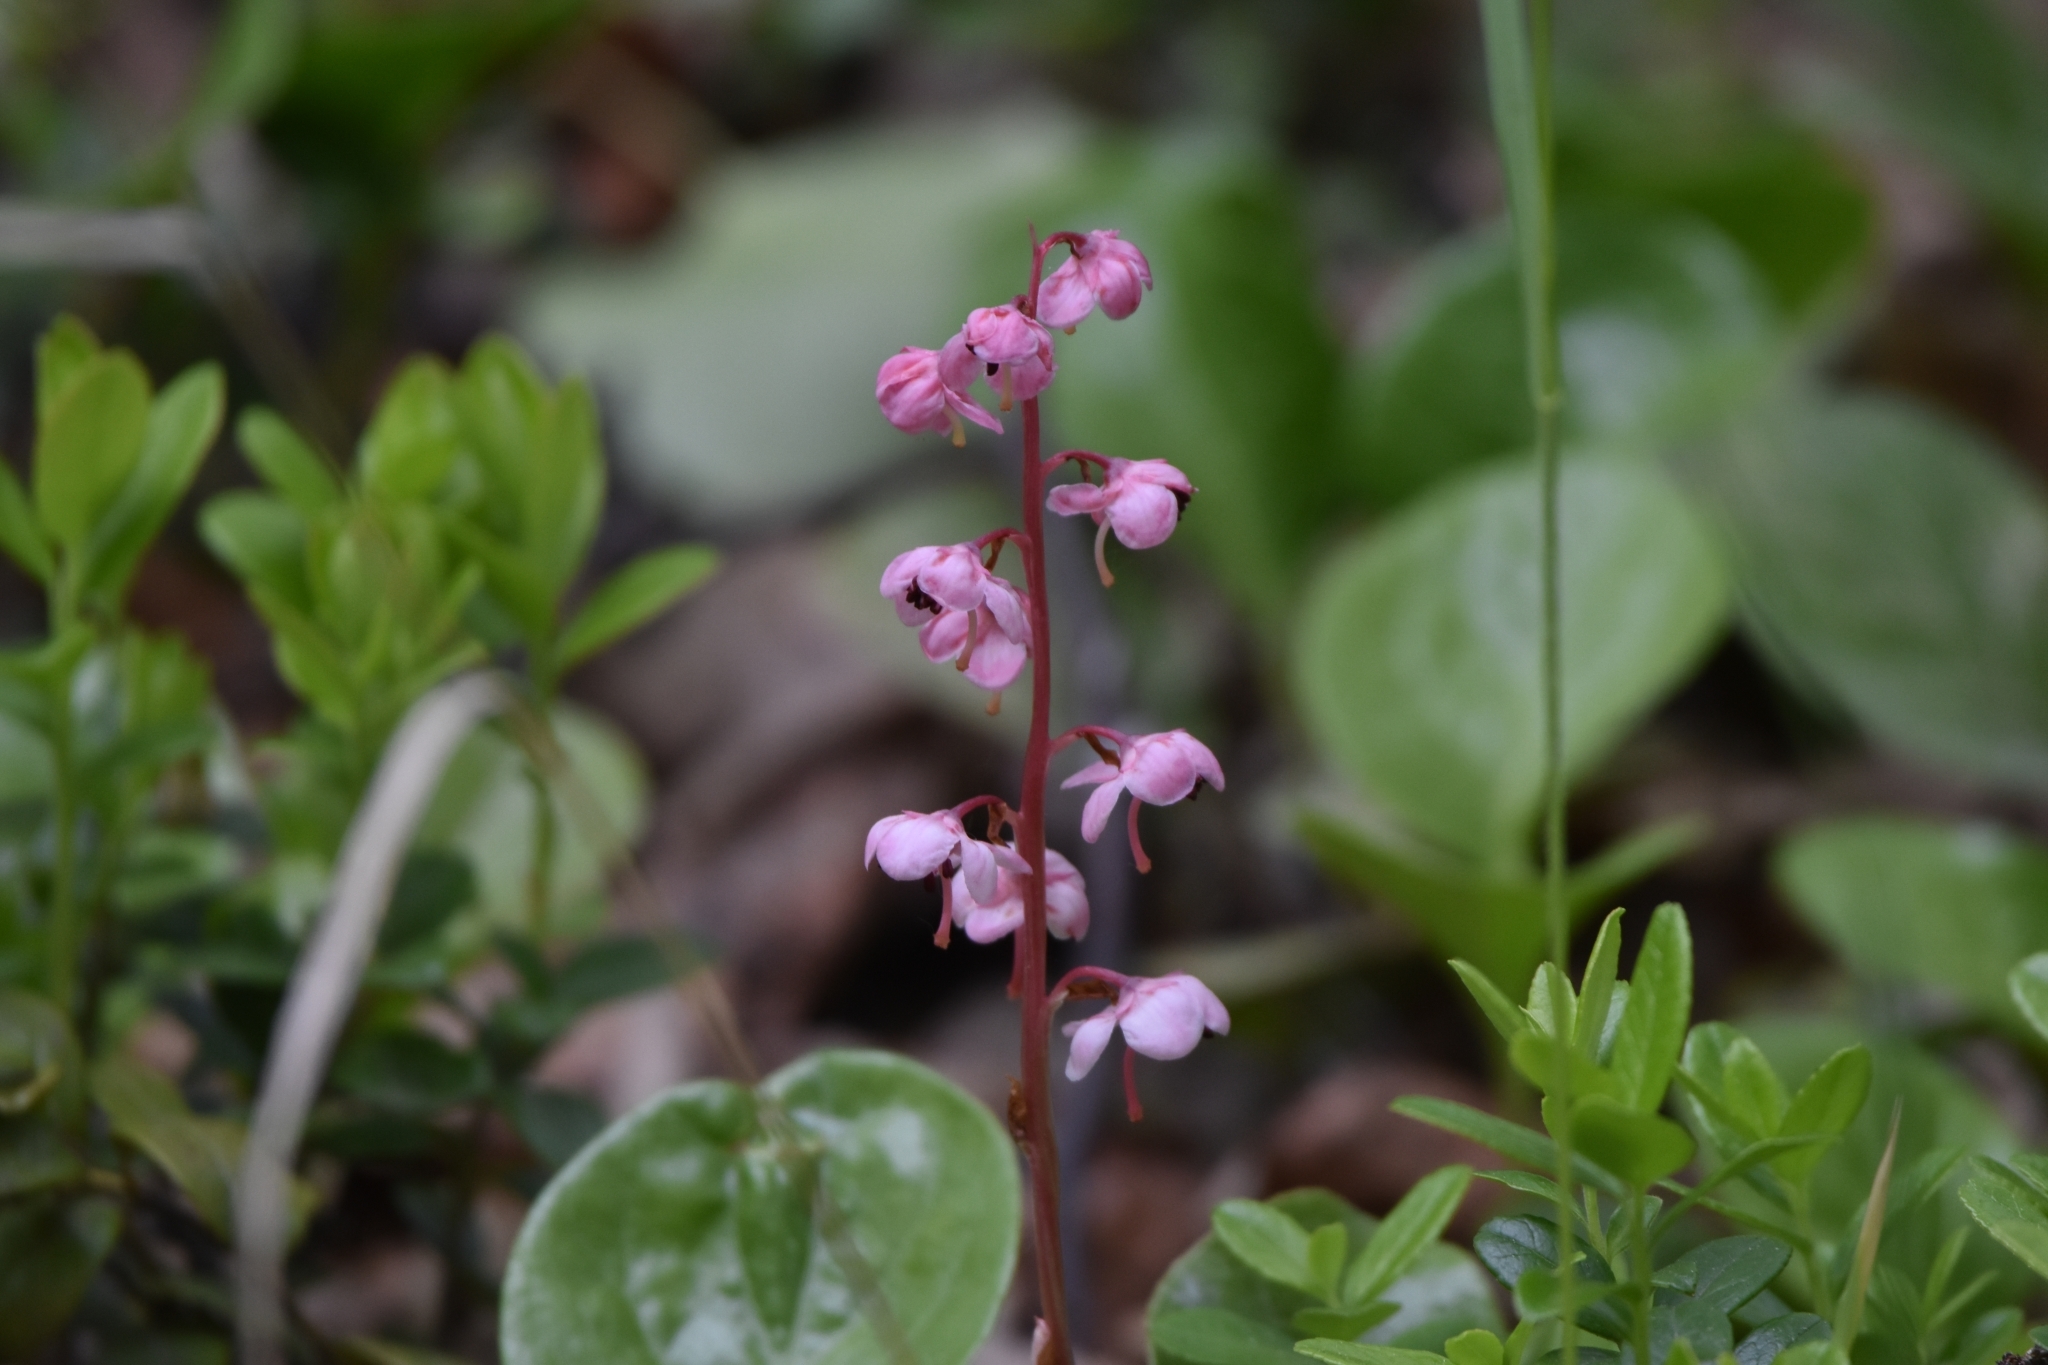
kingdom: Plantae
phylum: Tracheophyta
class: Magnoliopsida
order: Ericales
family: Ericaceae
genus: Pyrola
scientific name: Pyrola asarifolia
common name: Bog wintergreen
